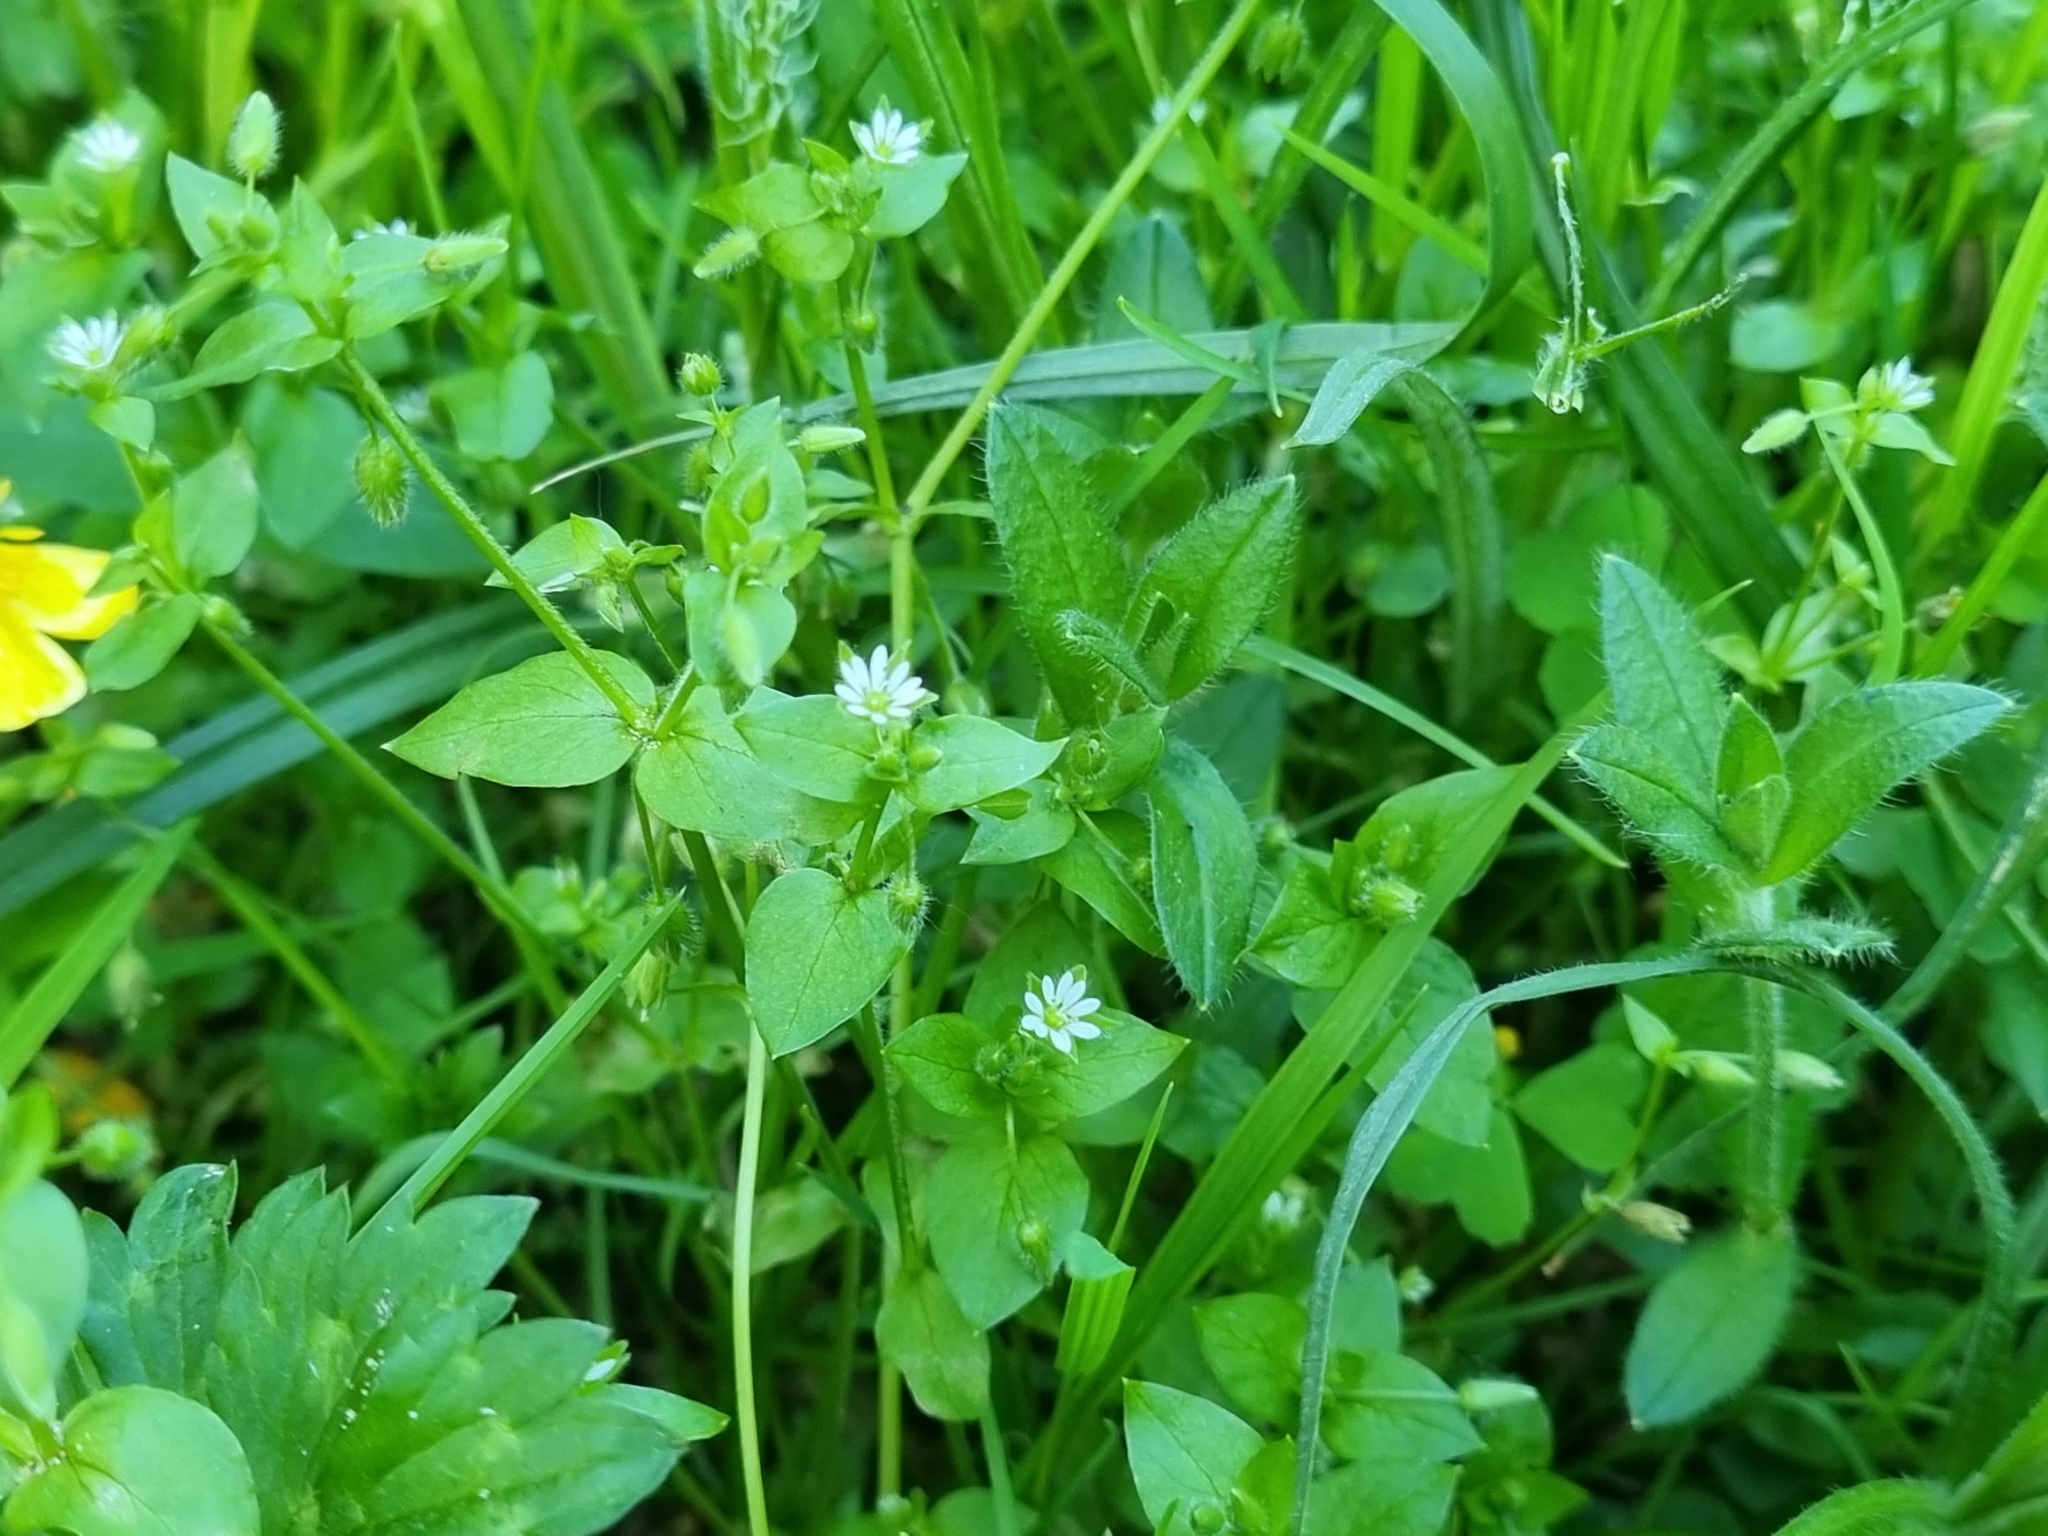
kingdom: Plantae
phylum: Tracheophyta
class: Magnoliopsida
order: Caryophyllales
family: Caryophyllaceae
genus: Stellaria
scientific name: Stellaria media
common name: Common chickweed
